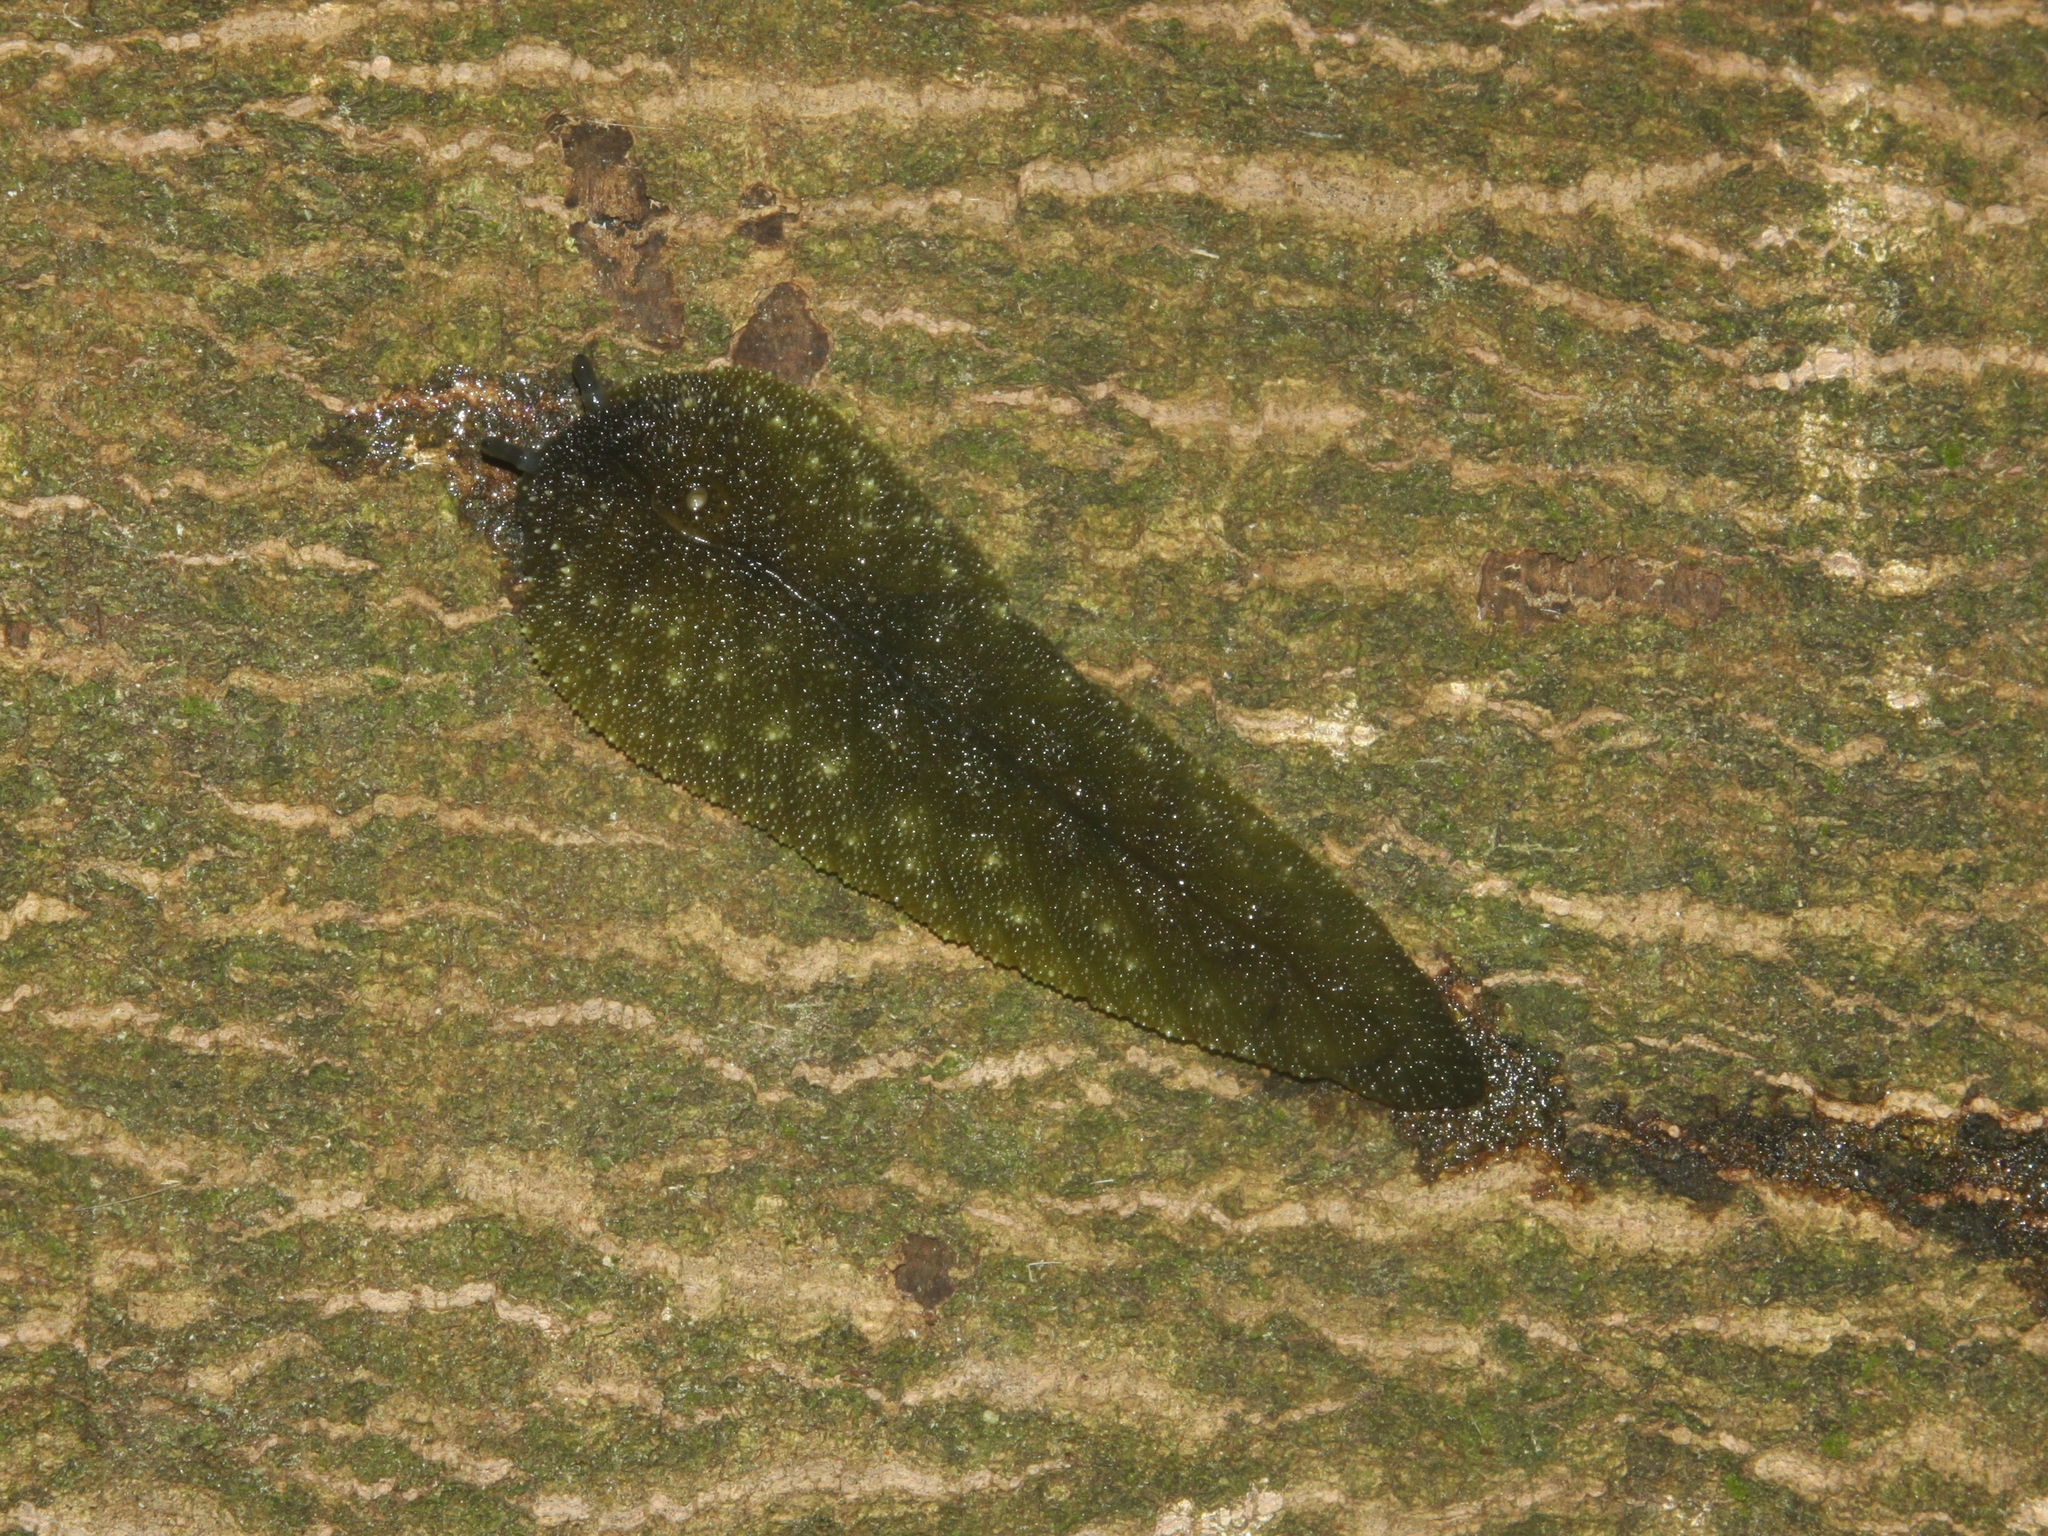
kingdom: Animalia
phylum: Mollusca
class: Gastropoda
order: Stylommatophora
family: Athoracophoridae
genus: Athoracophorus
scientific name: Athoracophorus papillatus
